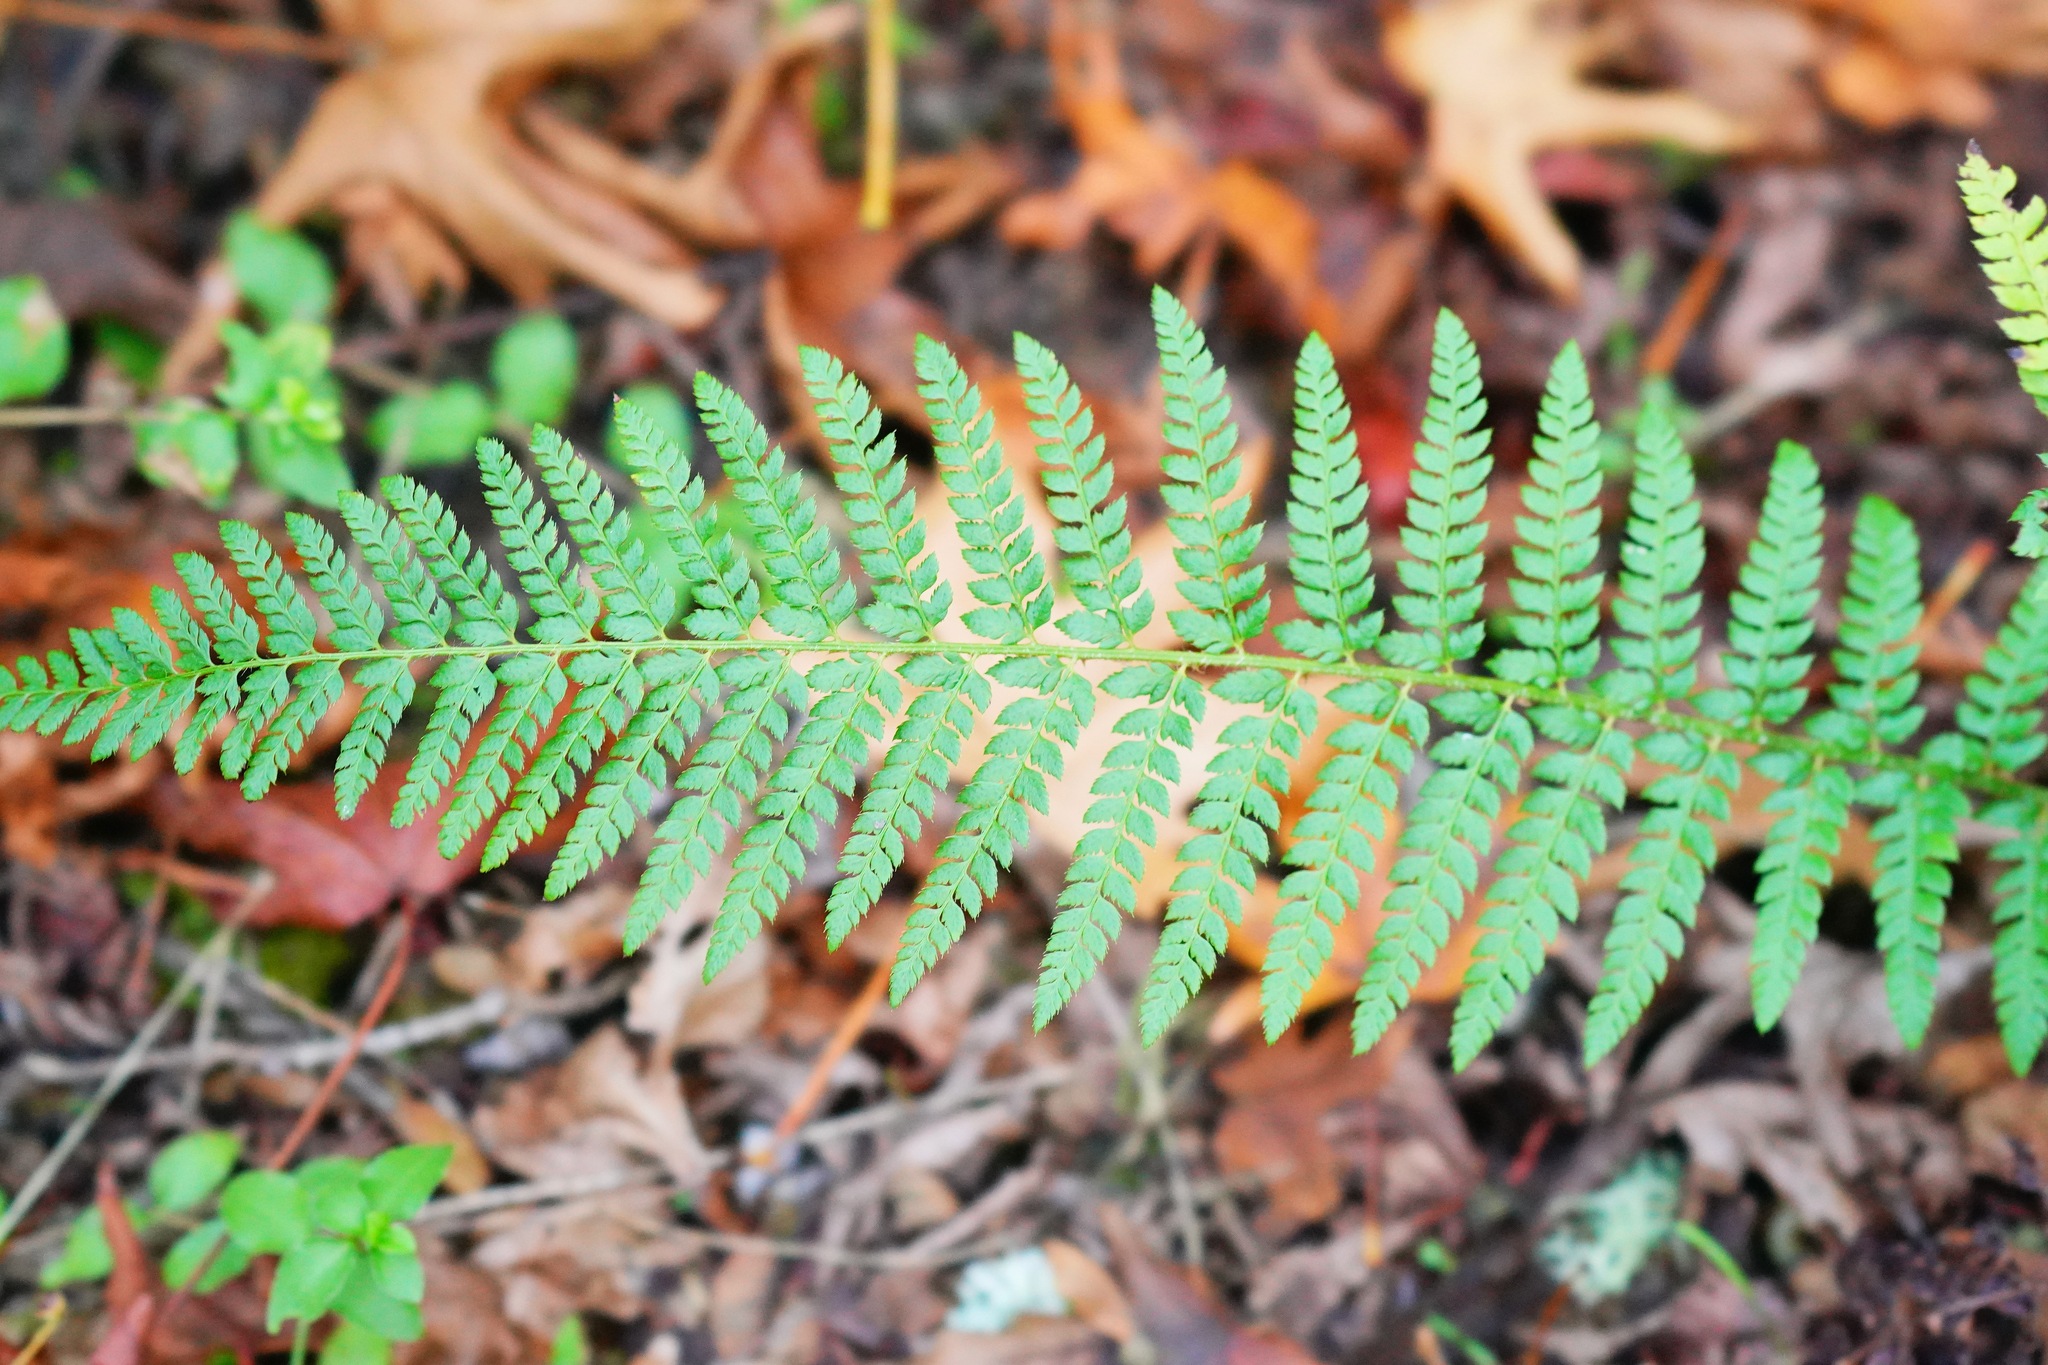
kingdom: Plantae
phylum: Tracheophyta
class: Polypodiopsida
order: Polypodiales
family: Dryopteridaceae
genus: Polystichum
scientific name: Polystichum dudleyi
